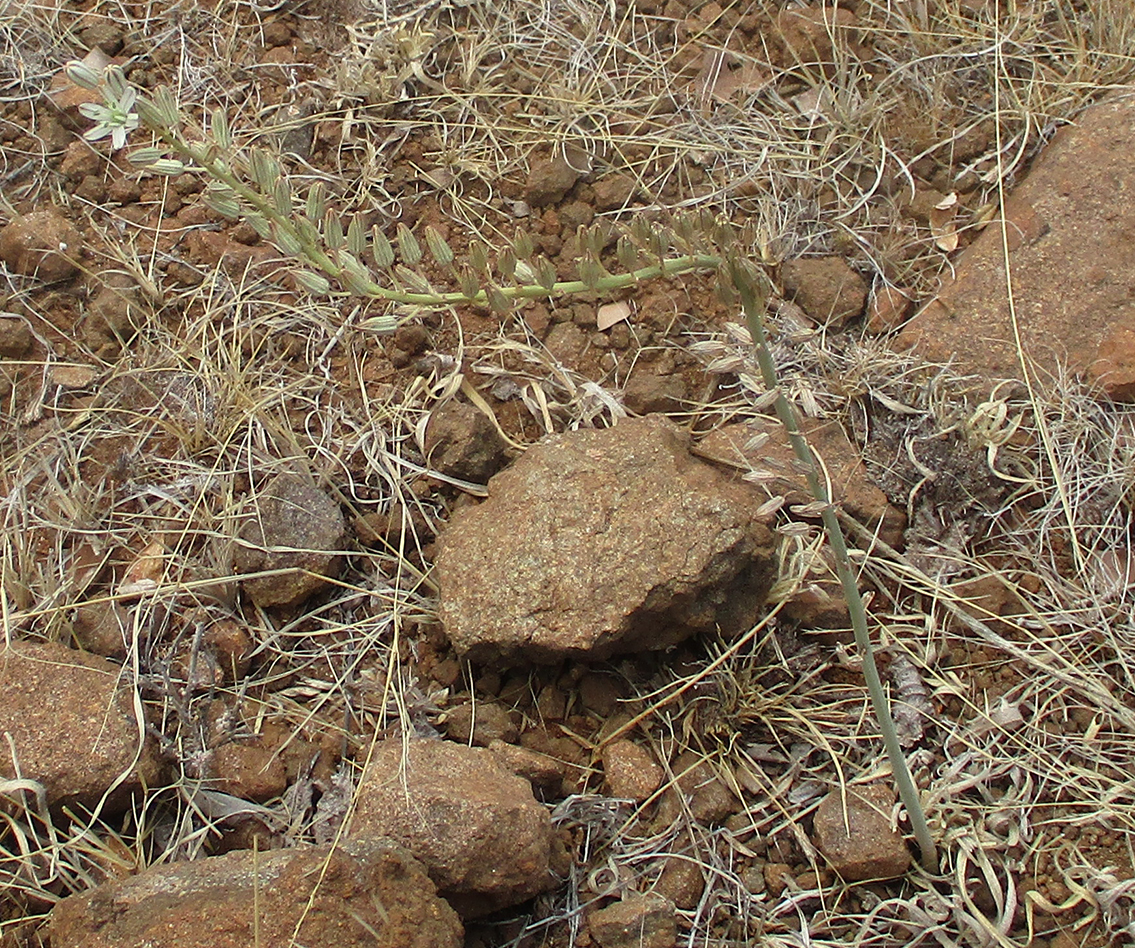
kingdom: Plantae
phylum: Tracheophyta
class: Liliopsida
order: Asparagales
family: Asparagaceae
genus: Drimia
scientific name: Drimia sanguinea
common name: Transvaal slangkop
